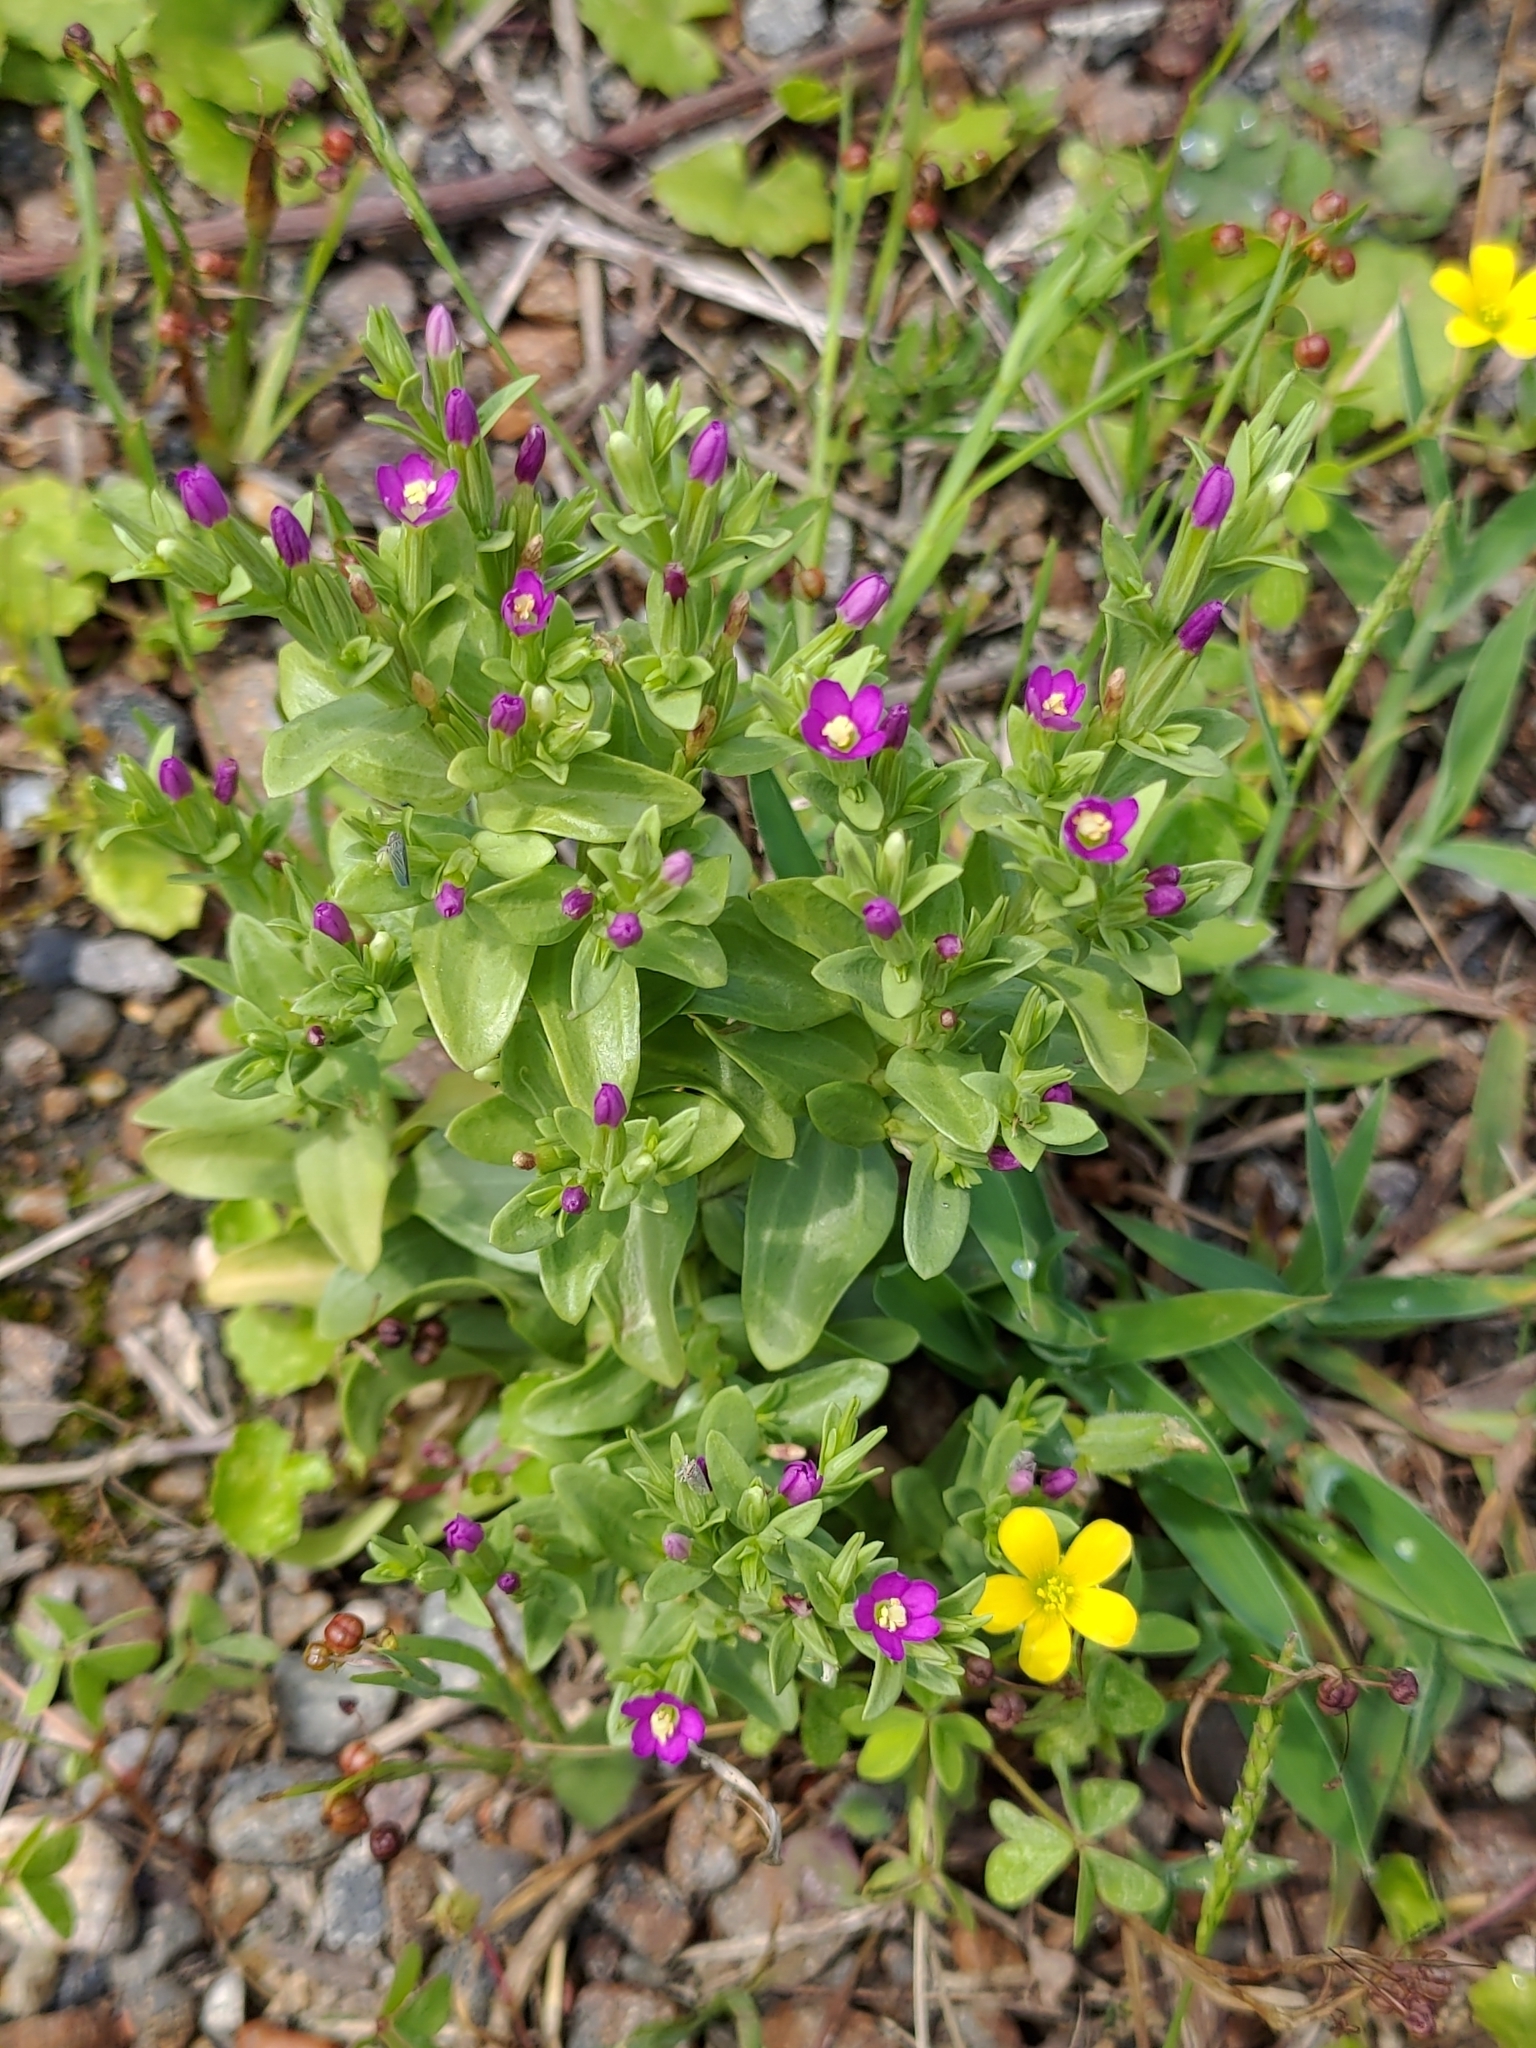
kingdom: Plantae
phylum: Tracheophyta
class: Magnoliopsida
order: Gentianales
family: Gentianaceae
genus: Schenkia
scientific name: Schenkia japonica
